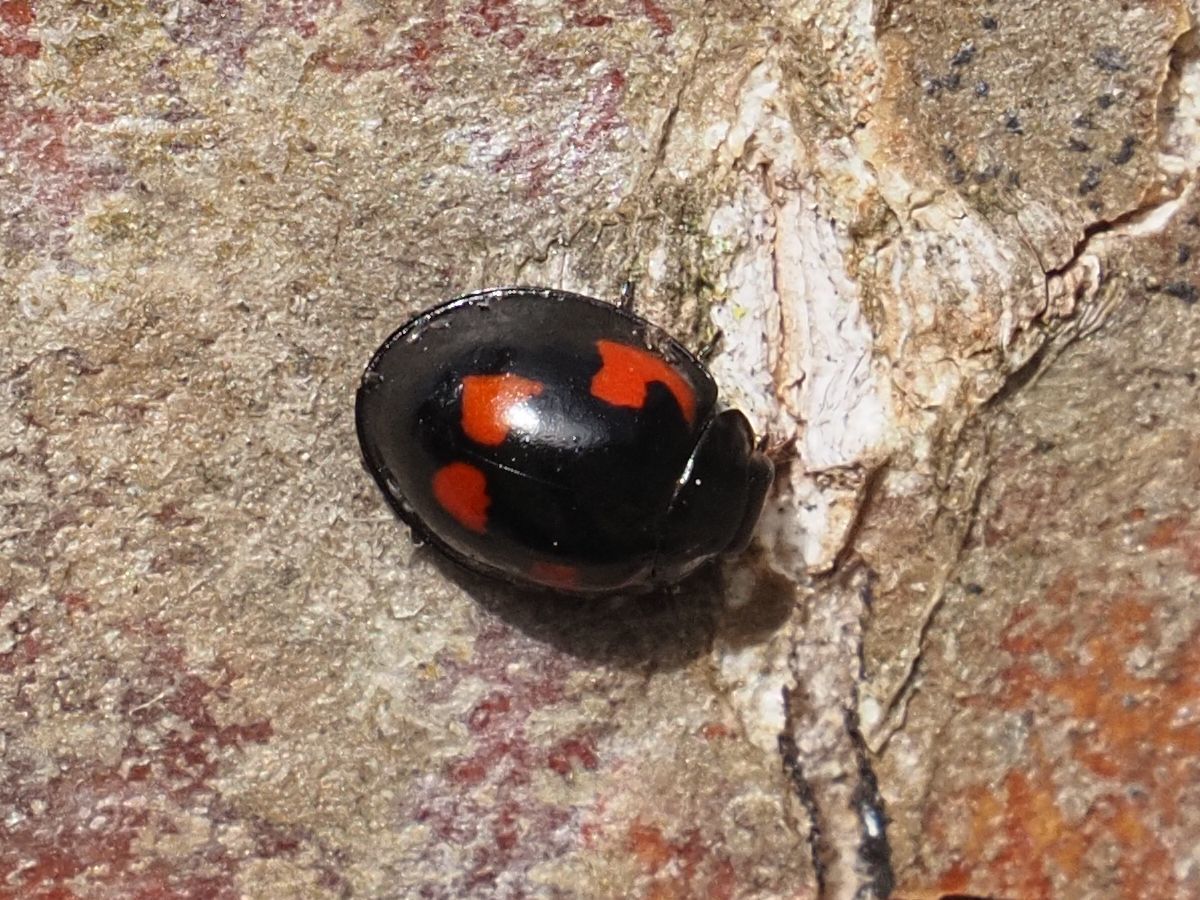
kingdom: Animalia
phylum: Arthropoda
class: Insecta
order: Coleoptera
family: Coccinellidae
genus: Brumus
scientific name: Brumus quadripustulatus
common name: Ladybird beetle
